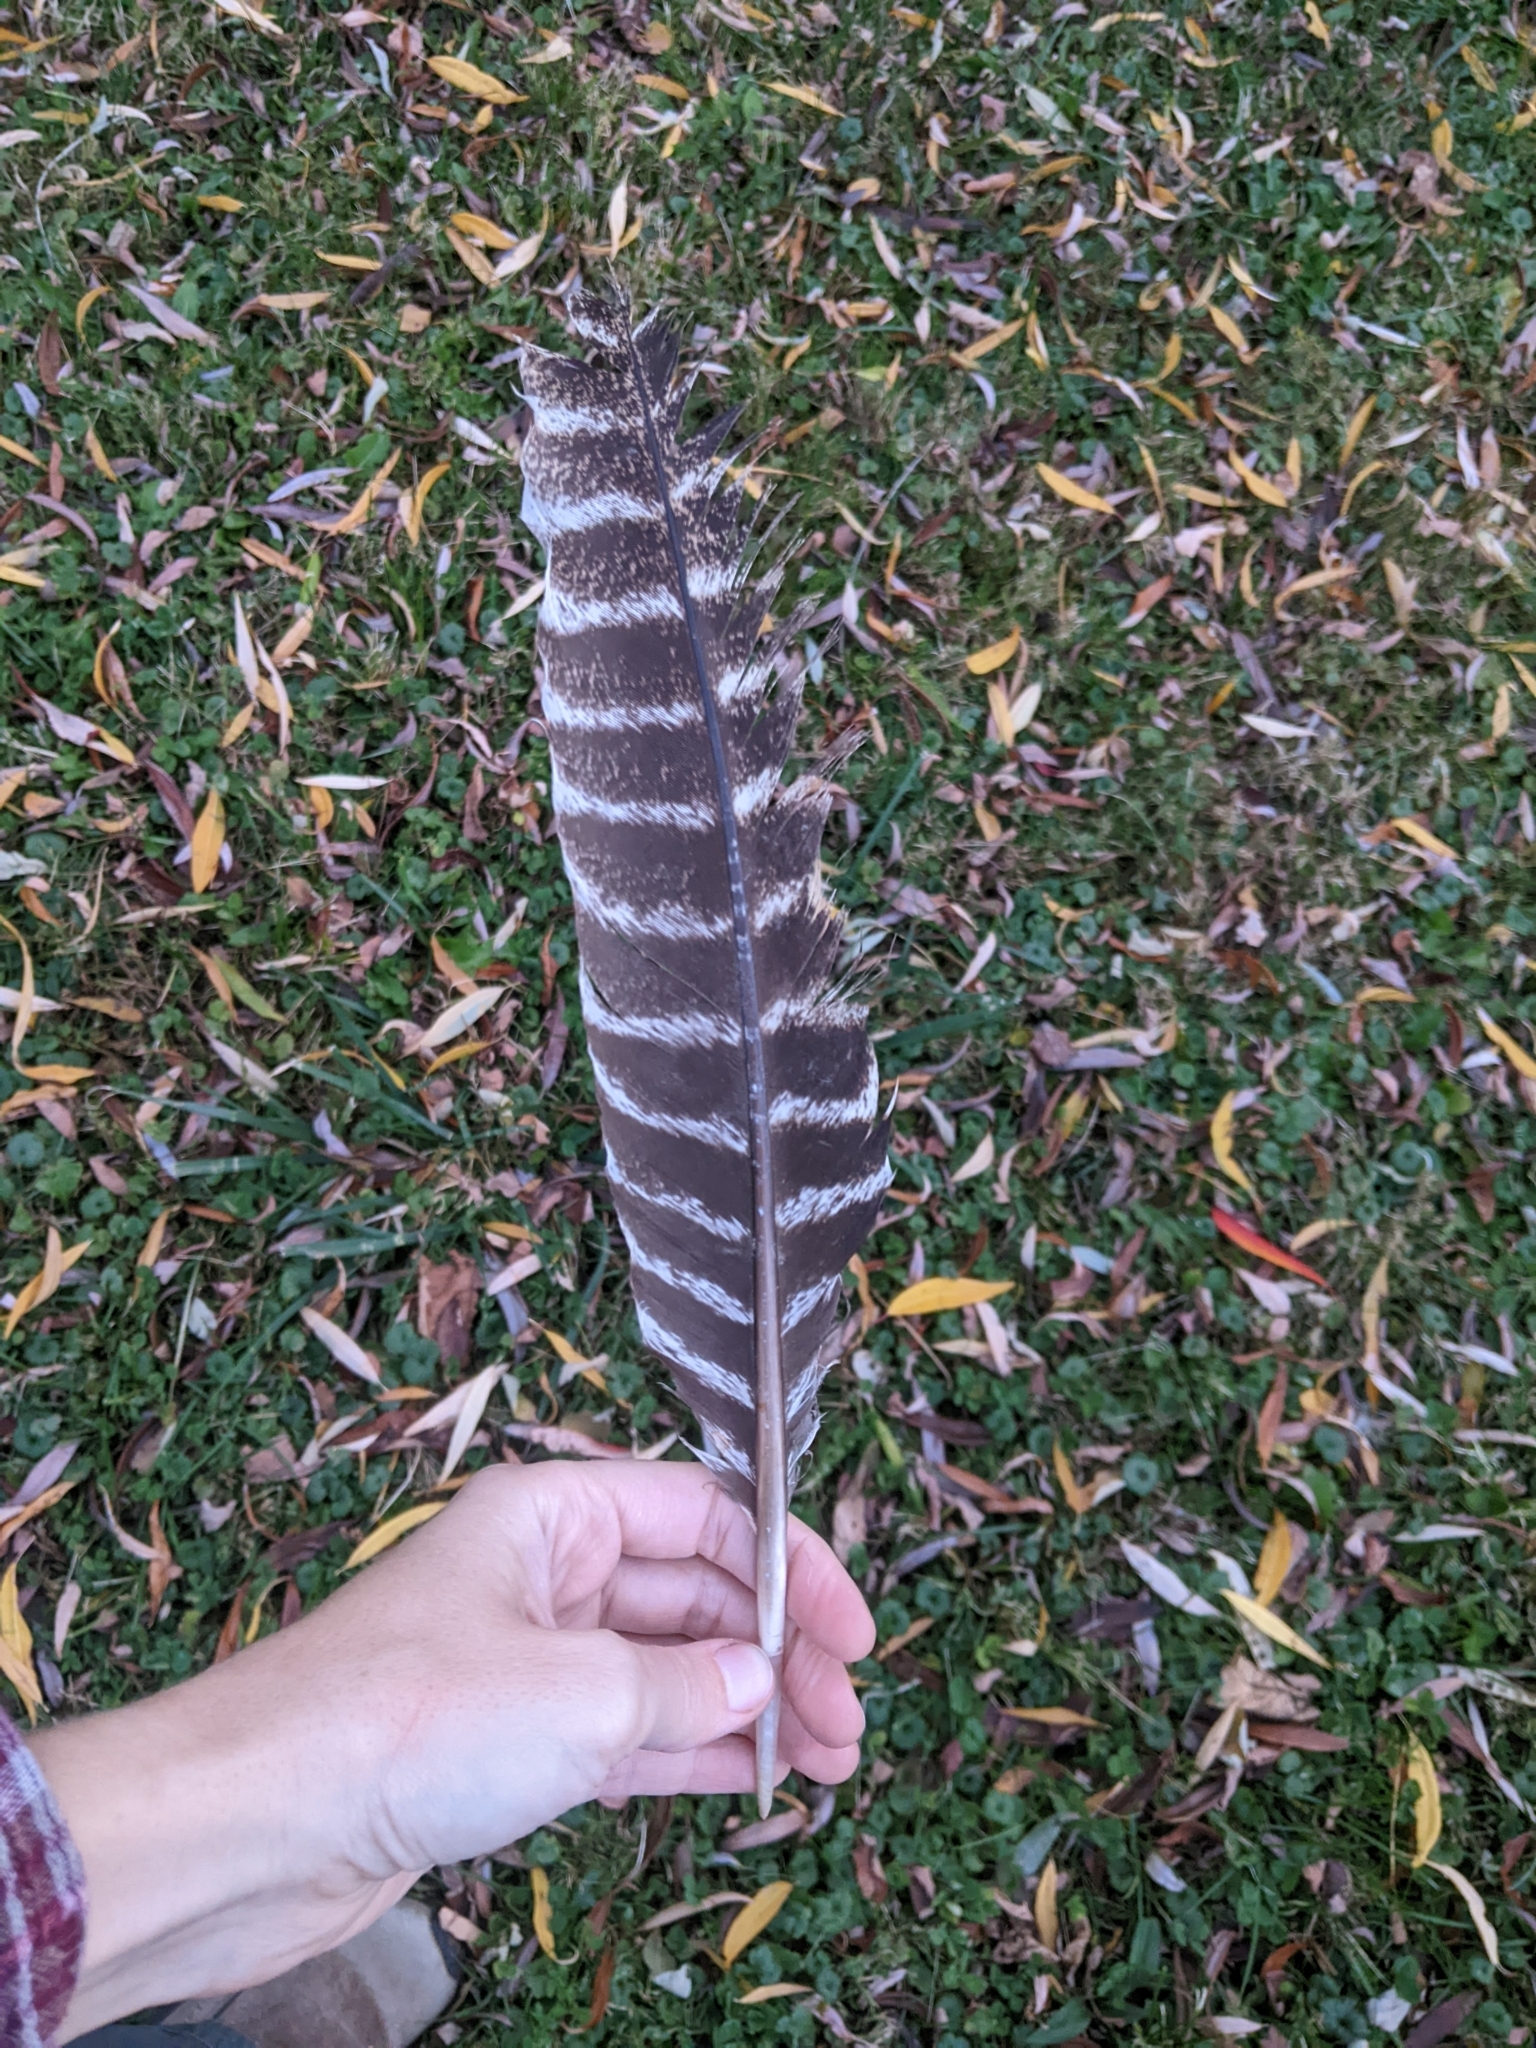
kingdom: Animalia
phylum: Chordata
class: Aves
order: Galliformes
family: Phasianidae
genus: Meleagris
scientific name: Meleagris gallopavo
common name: Wild turkey
